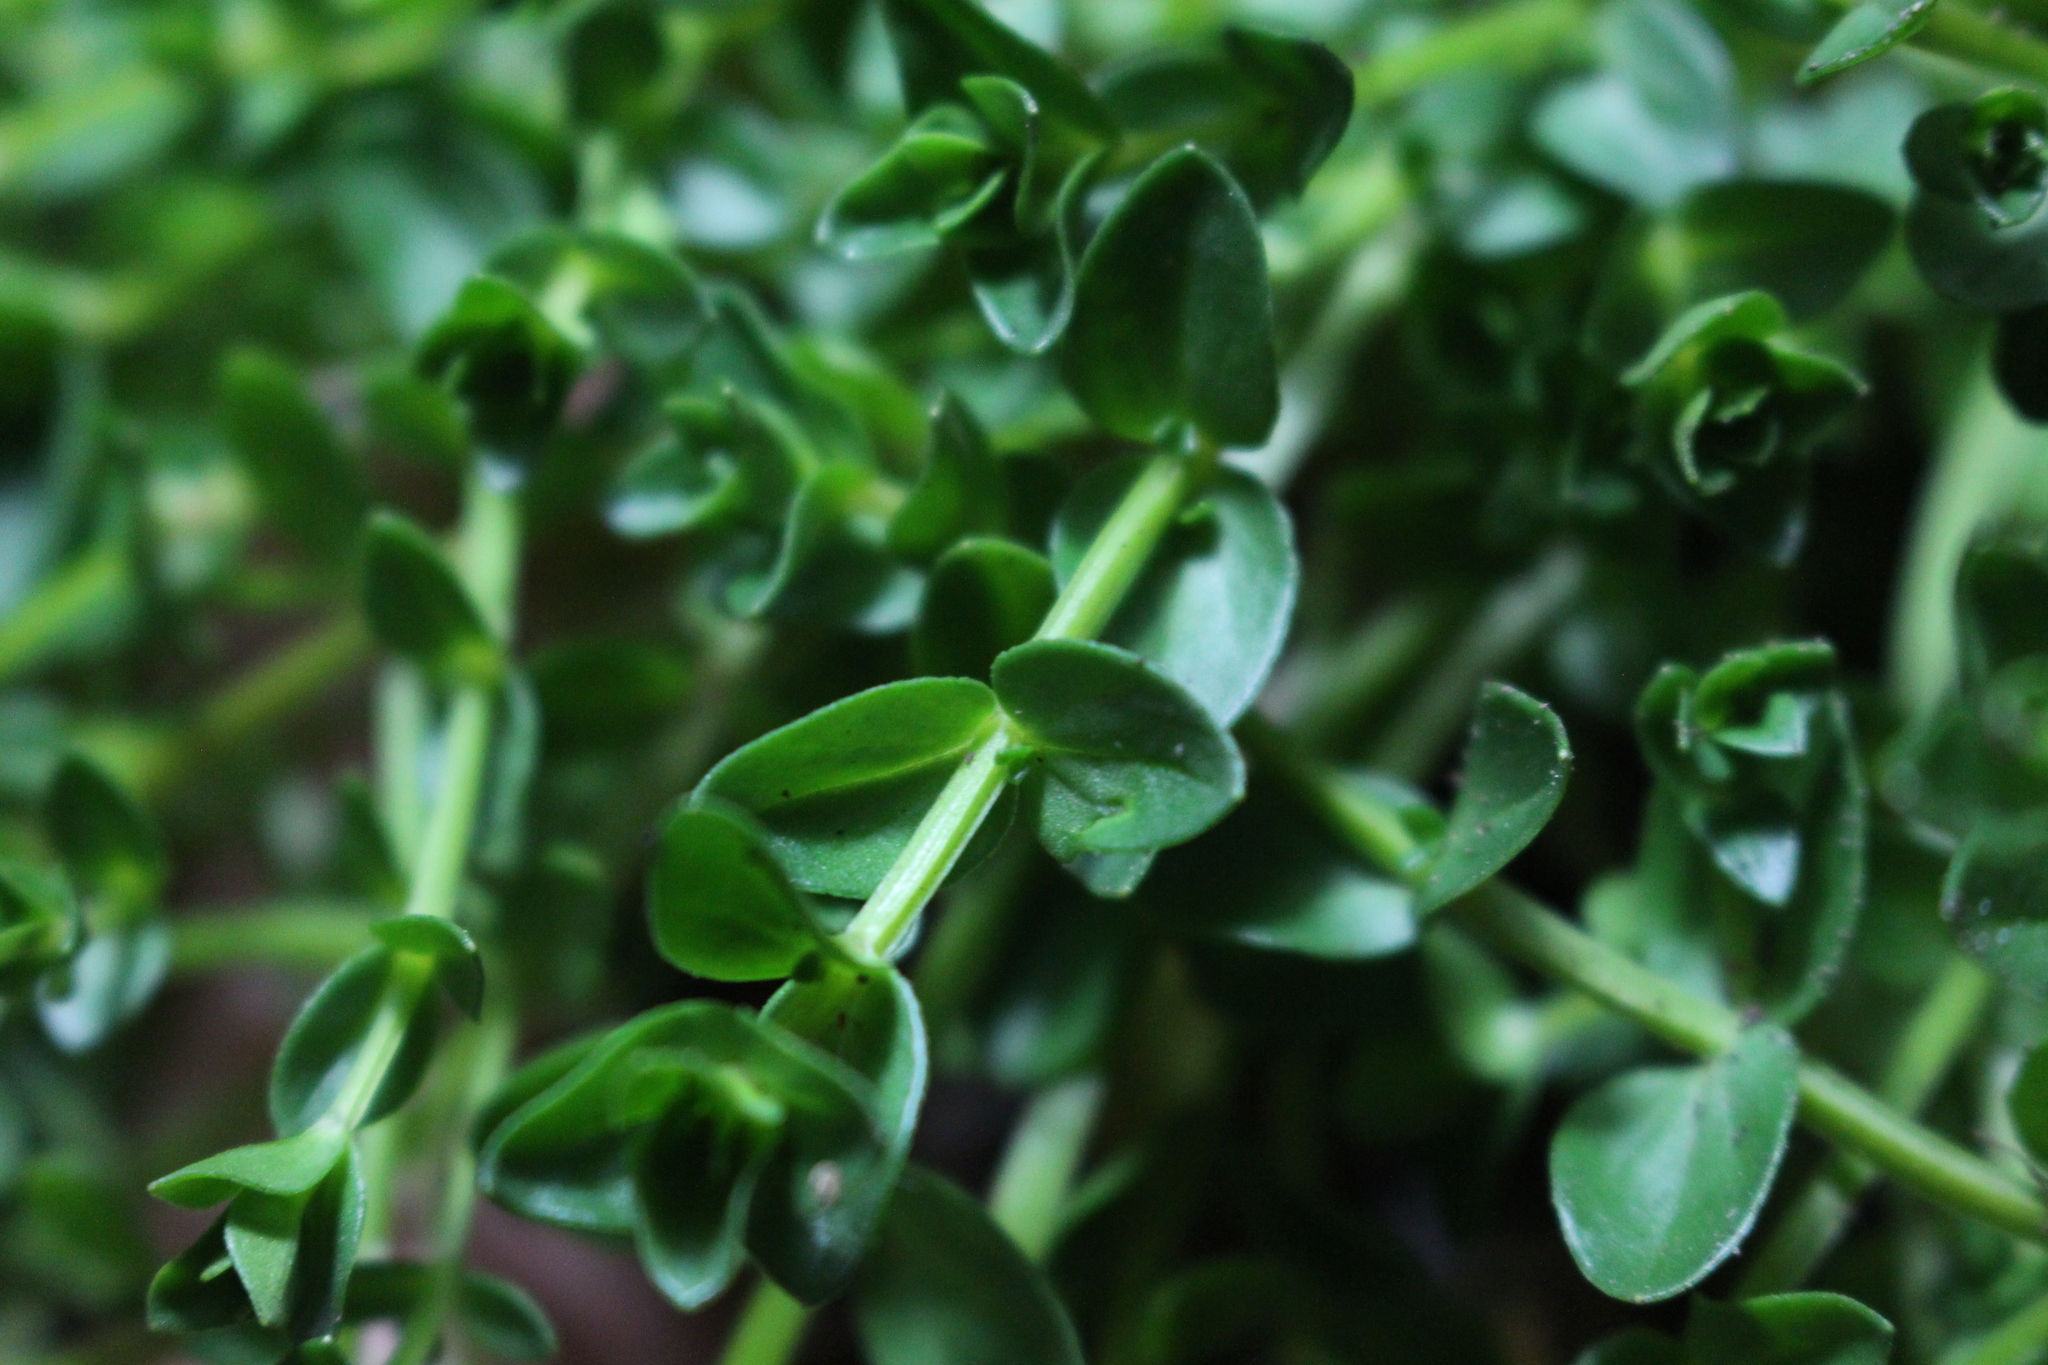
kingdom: Plantae
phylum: Tracheophyta
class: Magnoliopsida
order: Ericales
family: Primulaceae
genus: Lysimachia
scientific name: Lysimachia arvensis
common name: Scarlet pimpernel
